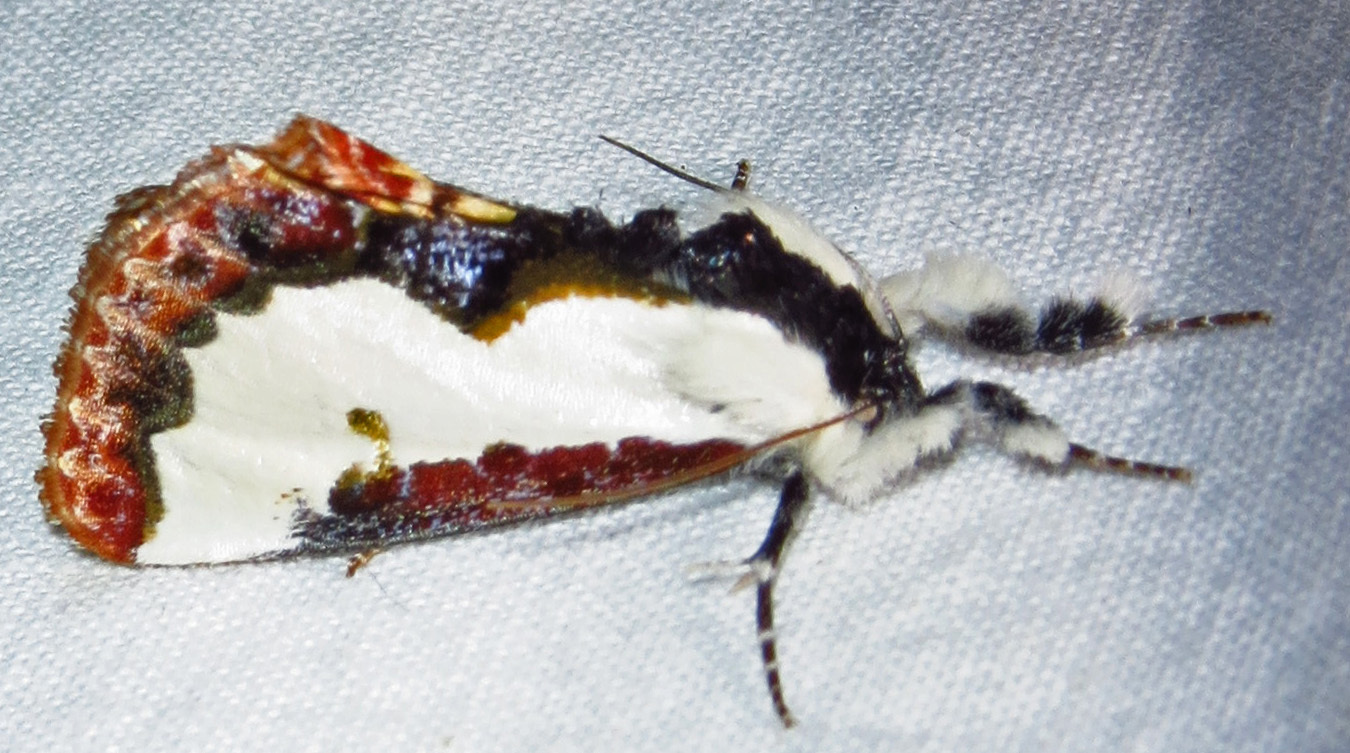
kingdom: Animalia
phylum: Arthropoda
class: Insecta
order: Lepidoptera
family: Noctuidae
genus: Eudryas
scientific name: Eudryas unio
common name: Pearly wood-nymph
